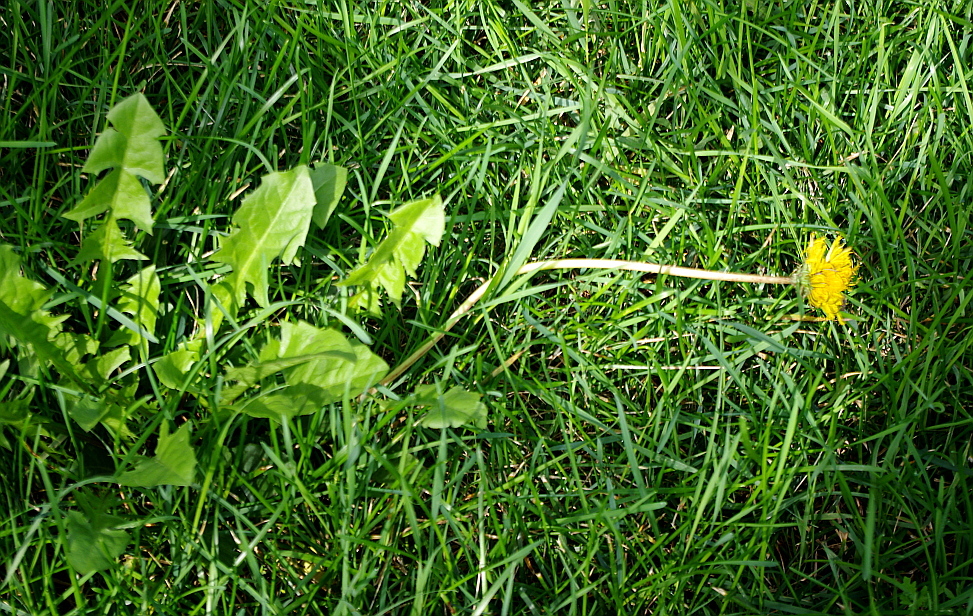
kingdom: Plantae
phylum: Tracheophyta
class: Magnoliopsida
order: Asterales
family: Asteraceae
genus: Taraxacum
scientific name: Taraxacum officinale
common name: Common dandelion
